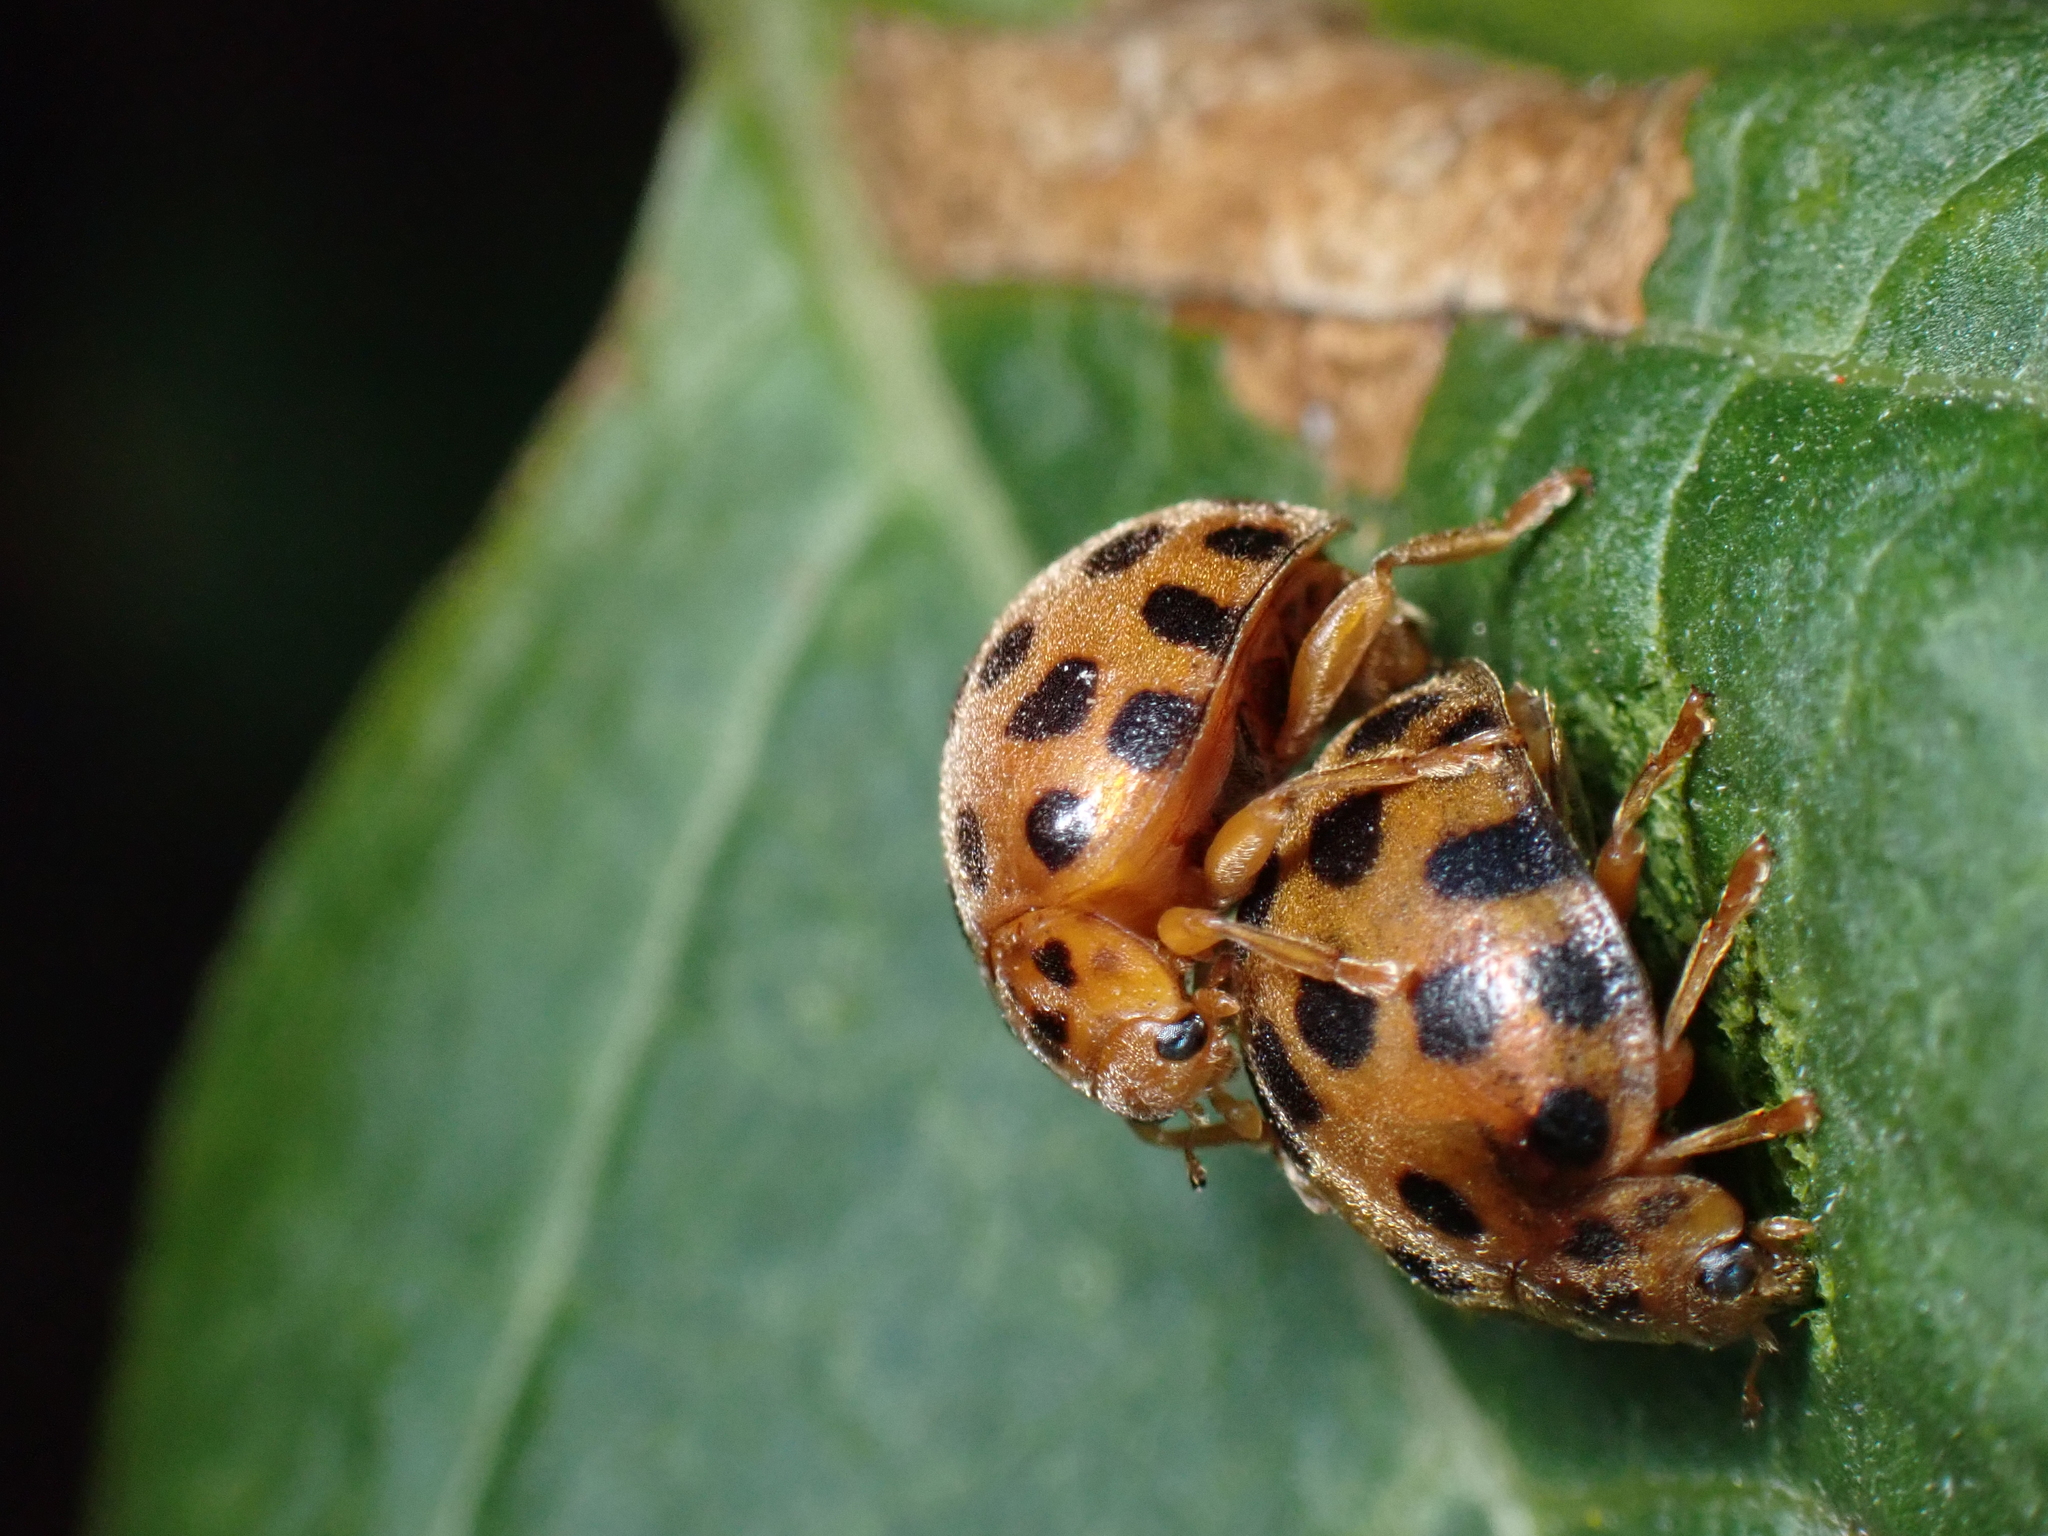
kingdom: Animalia
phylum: Arthropoda
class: Insecta
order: Coleoptera
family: Coccinellidae
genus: Henosepilachna
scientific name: Henosepilachna vigintioctopunctata
